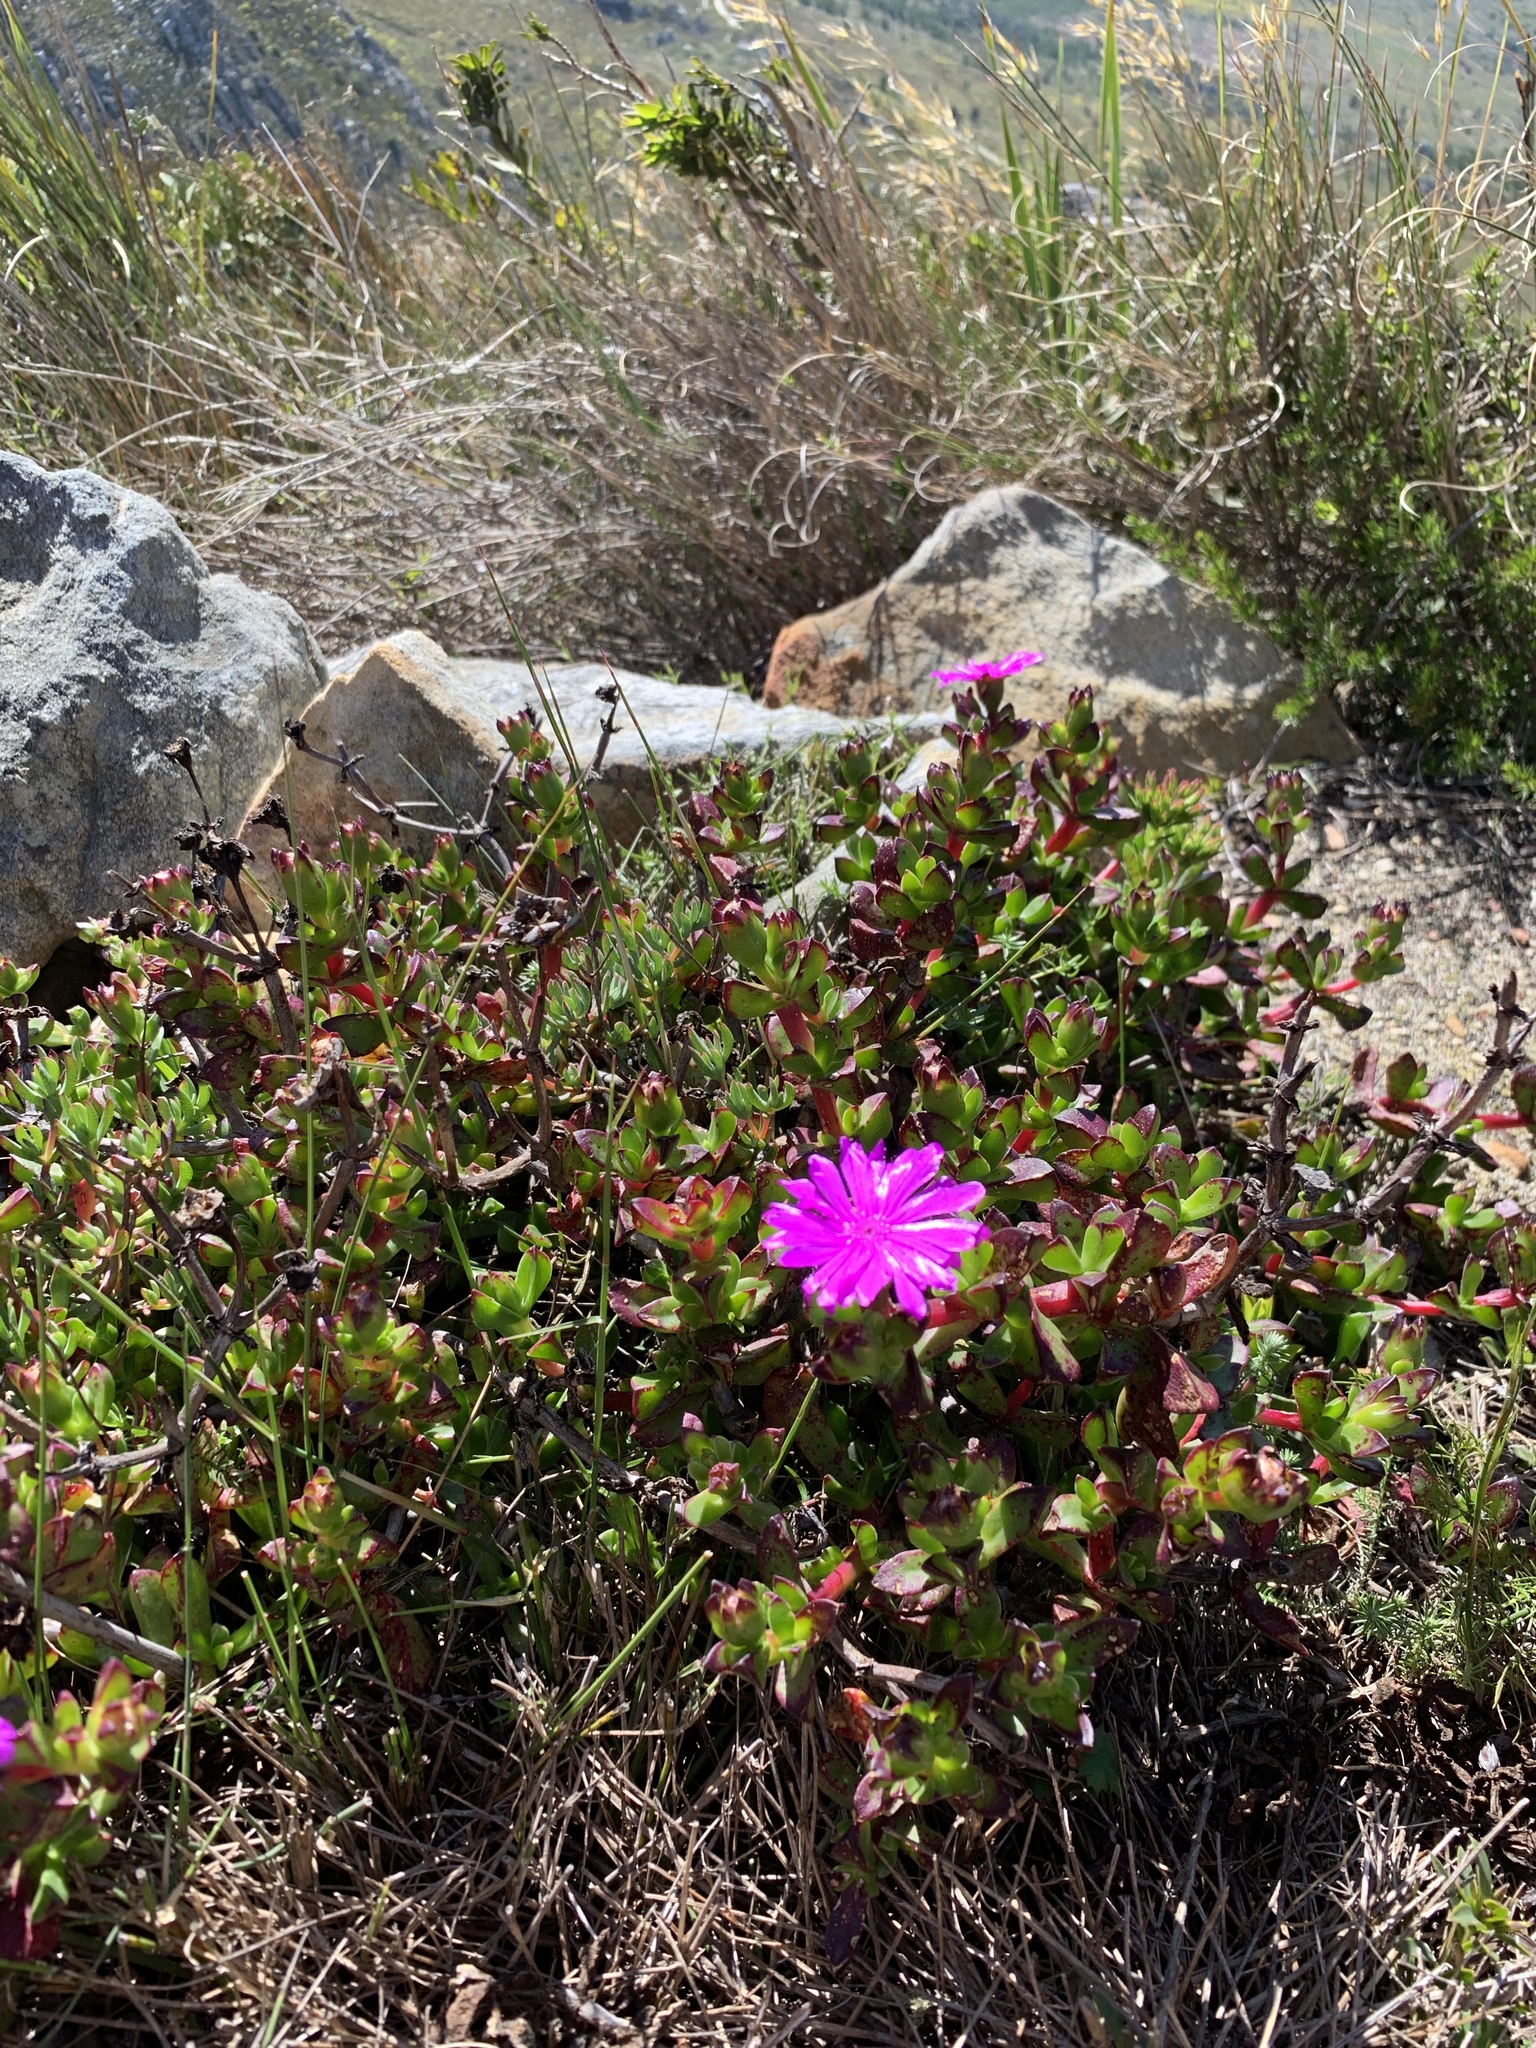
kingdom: Plantae
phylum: Tracheophyta
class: Magnoliopsida
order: Caryophyllales
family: Aizoaceae
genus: Erepsia
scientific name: Erepsia inclaudens
